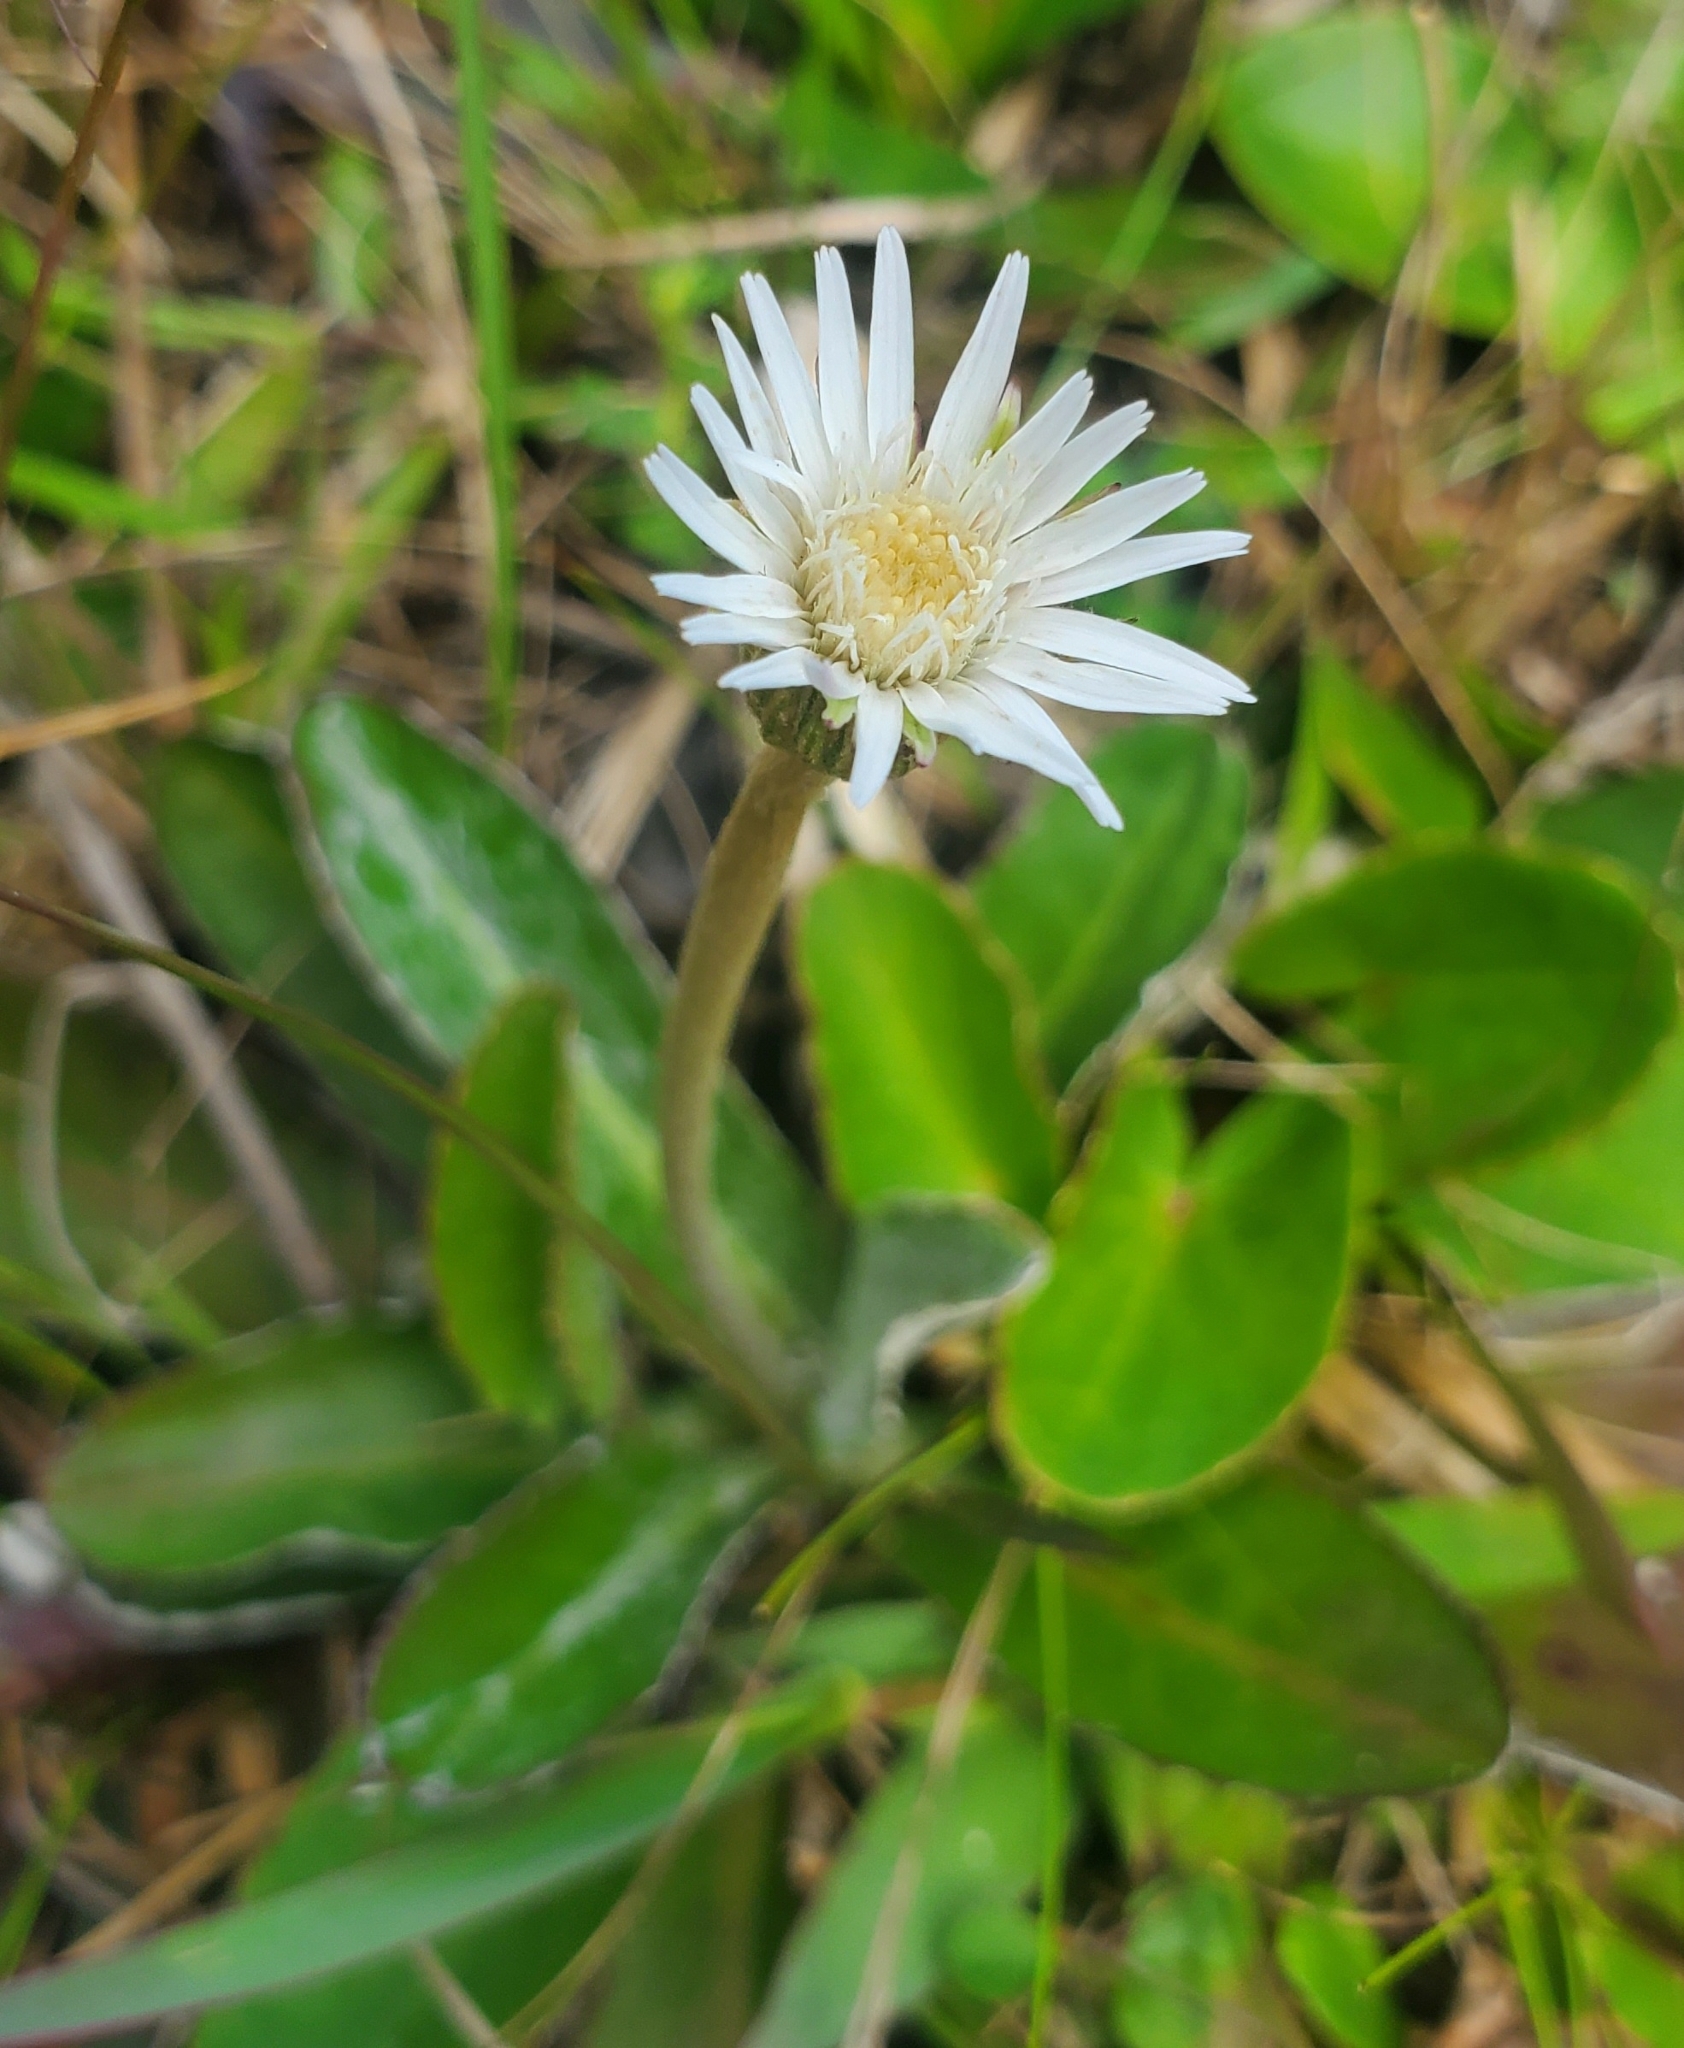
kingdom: Plantae
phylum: Tracheophyta
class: Magnoliopsida
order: Asterales
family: Asteraceae
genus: Chaptalia
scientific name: Chaptalia tomentosa
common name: Woolly sunbonnet
